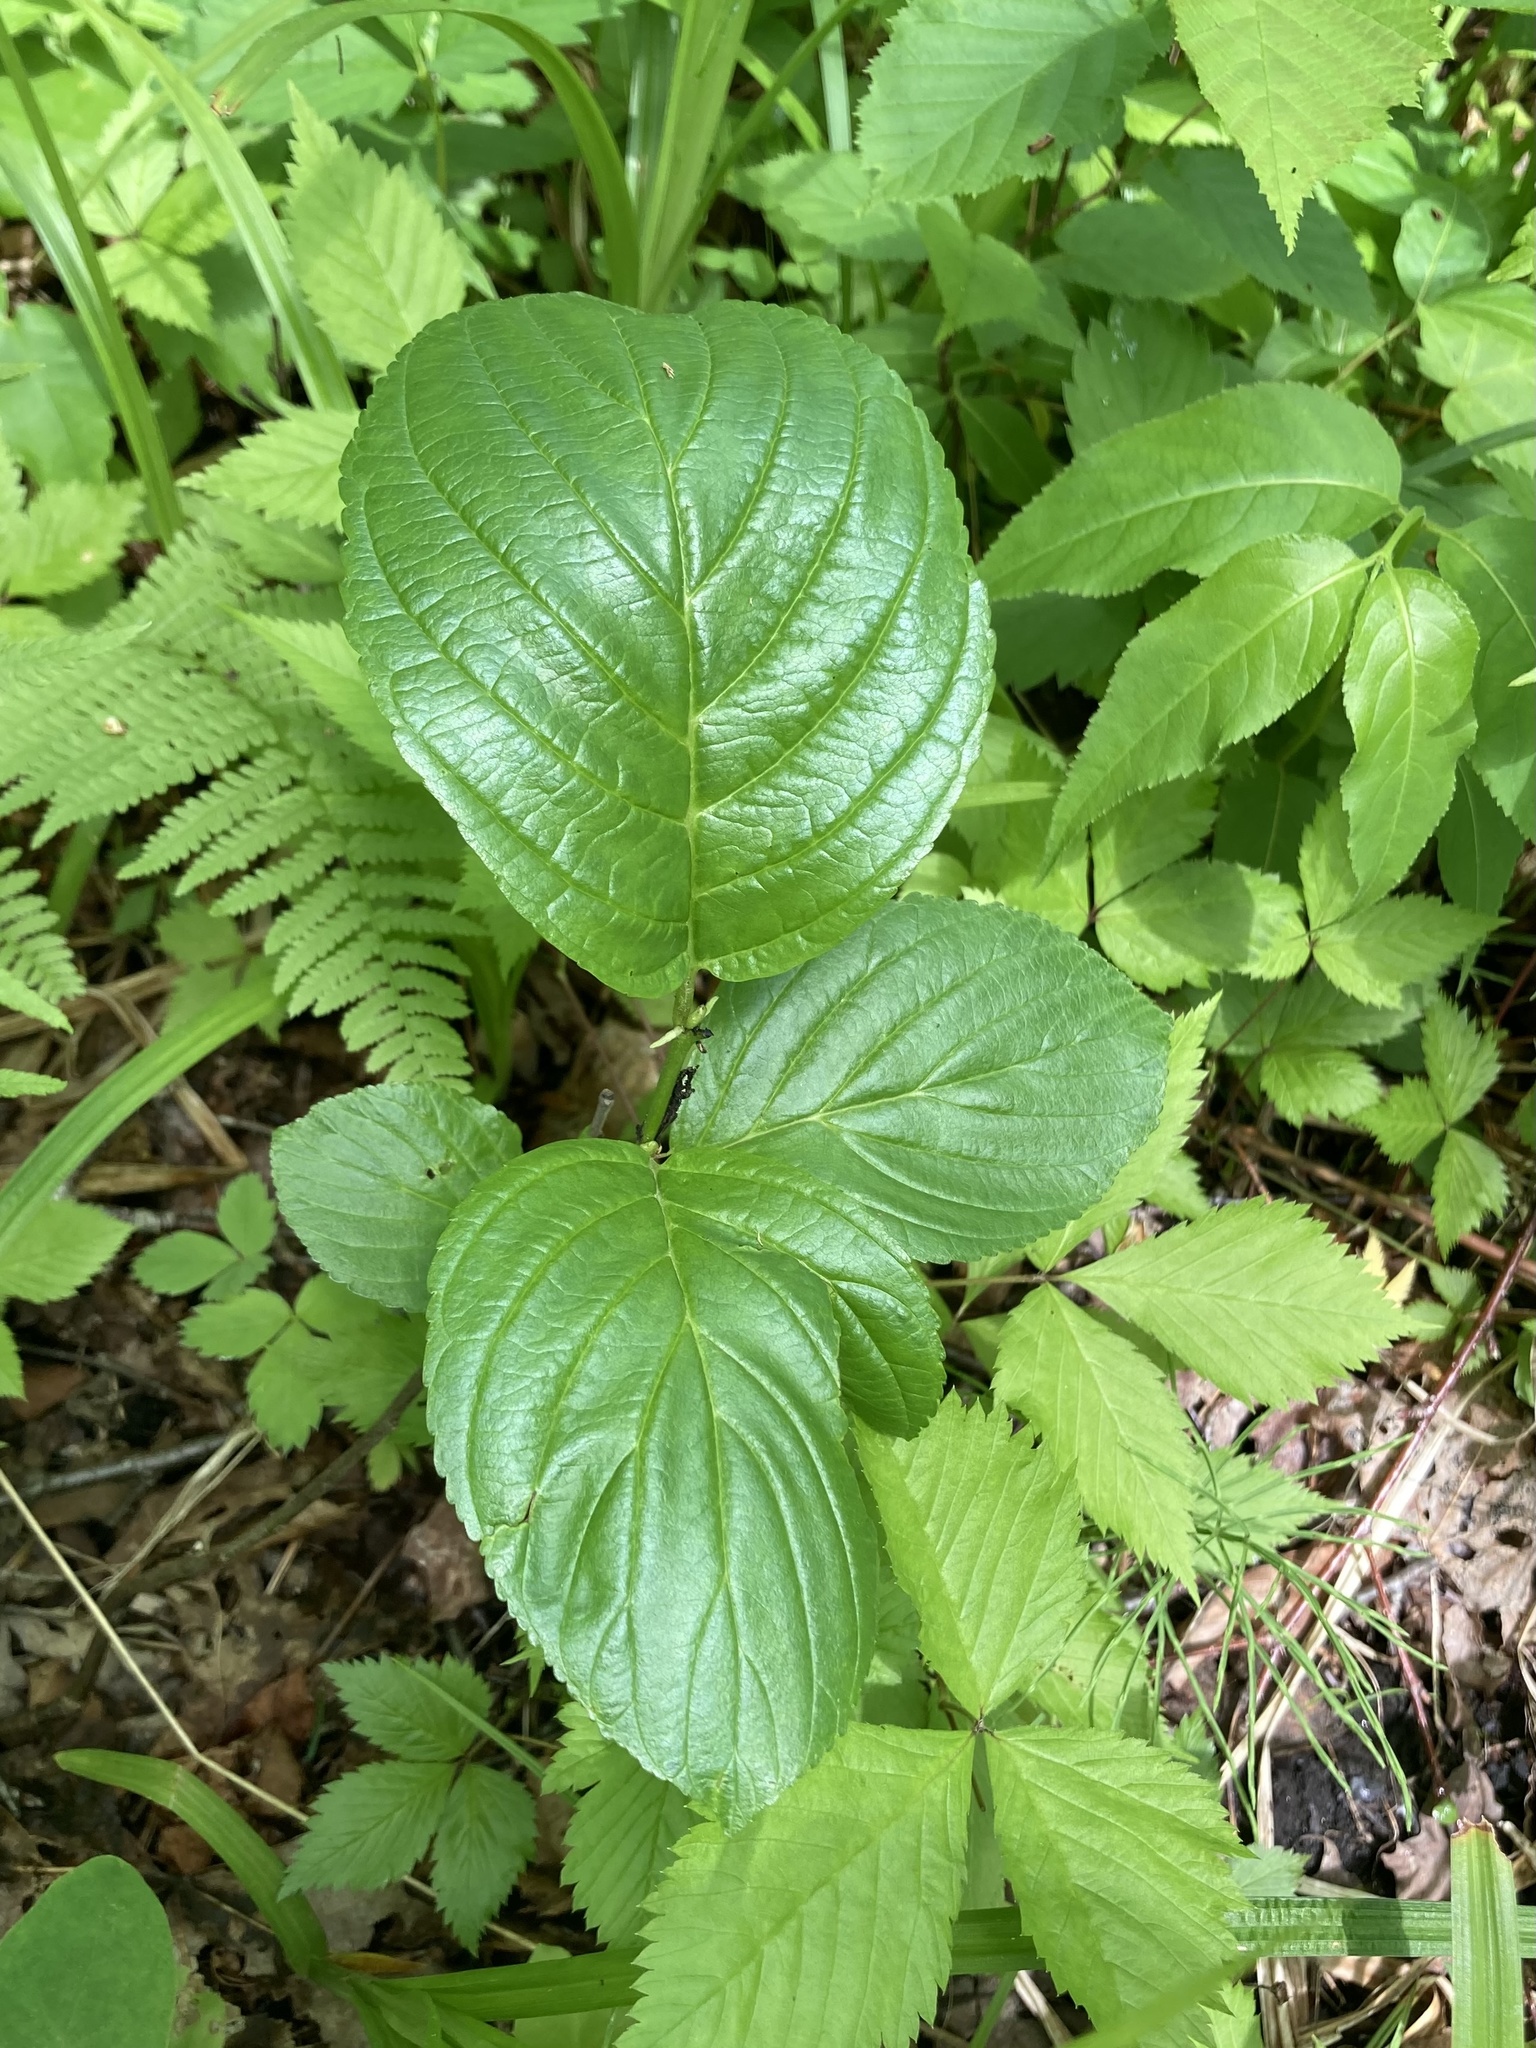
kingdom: Plantae
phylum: Tracheophyta
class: Magnoliopsida
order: Rosales
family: Rhamnaceae
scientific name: Rhamnaceae
